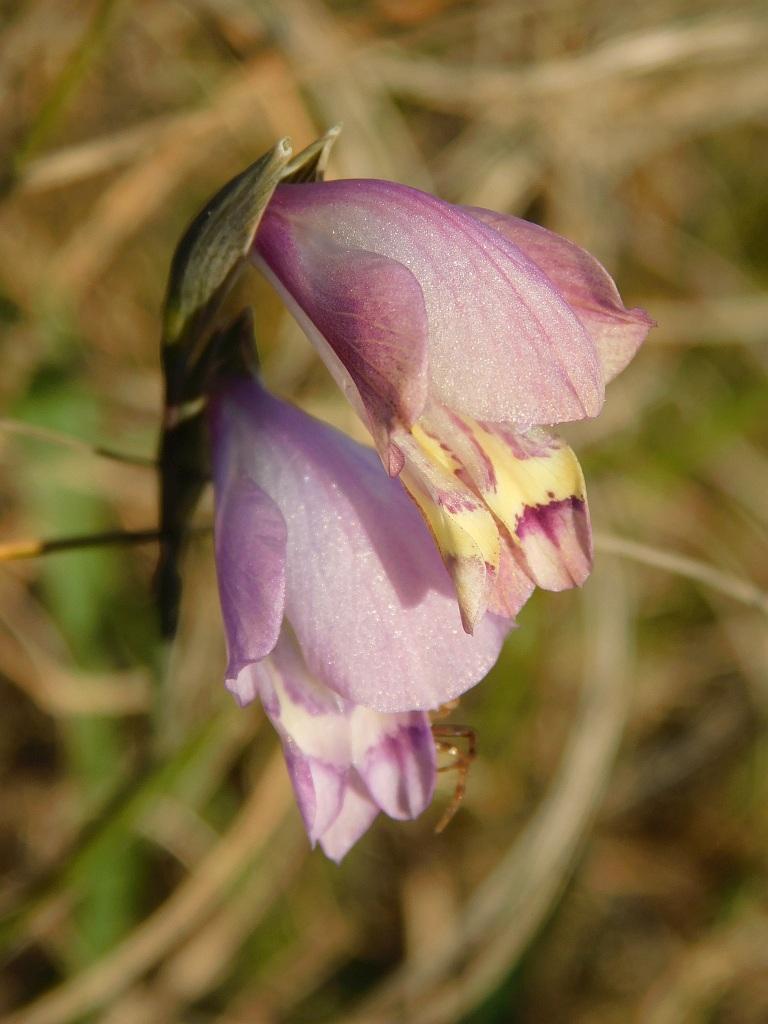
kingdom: Plantae
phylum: Tracheophyta
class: Liliopsida
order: Asparagales
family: Iridaceae
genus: Gladiolus
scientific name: Gladiolus patersoniae
